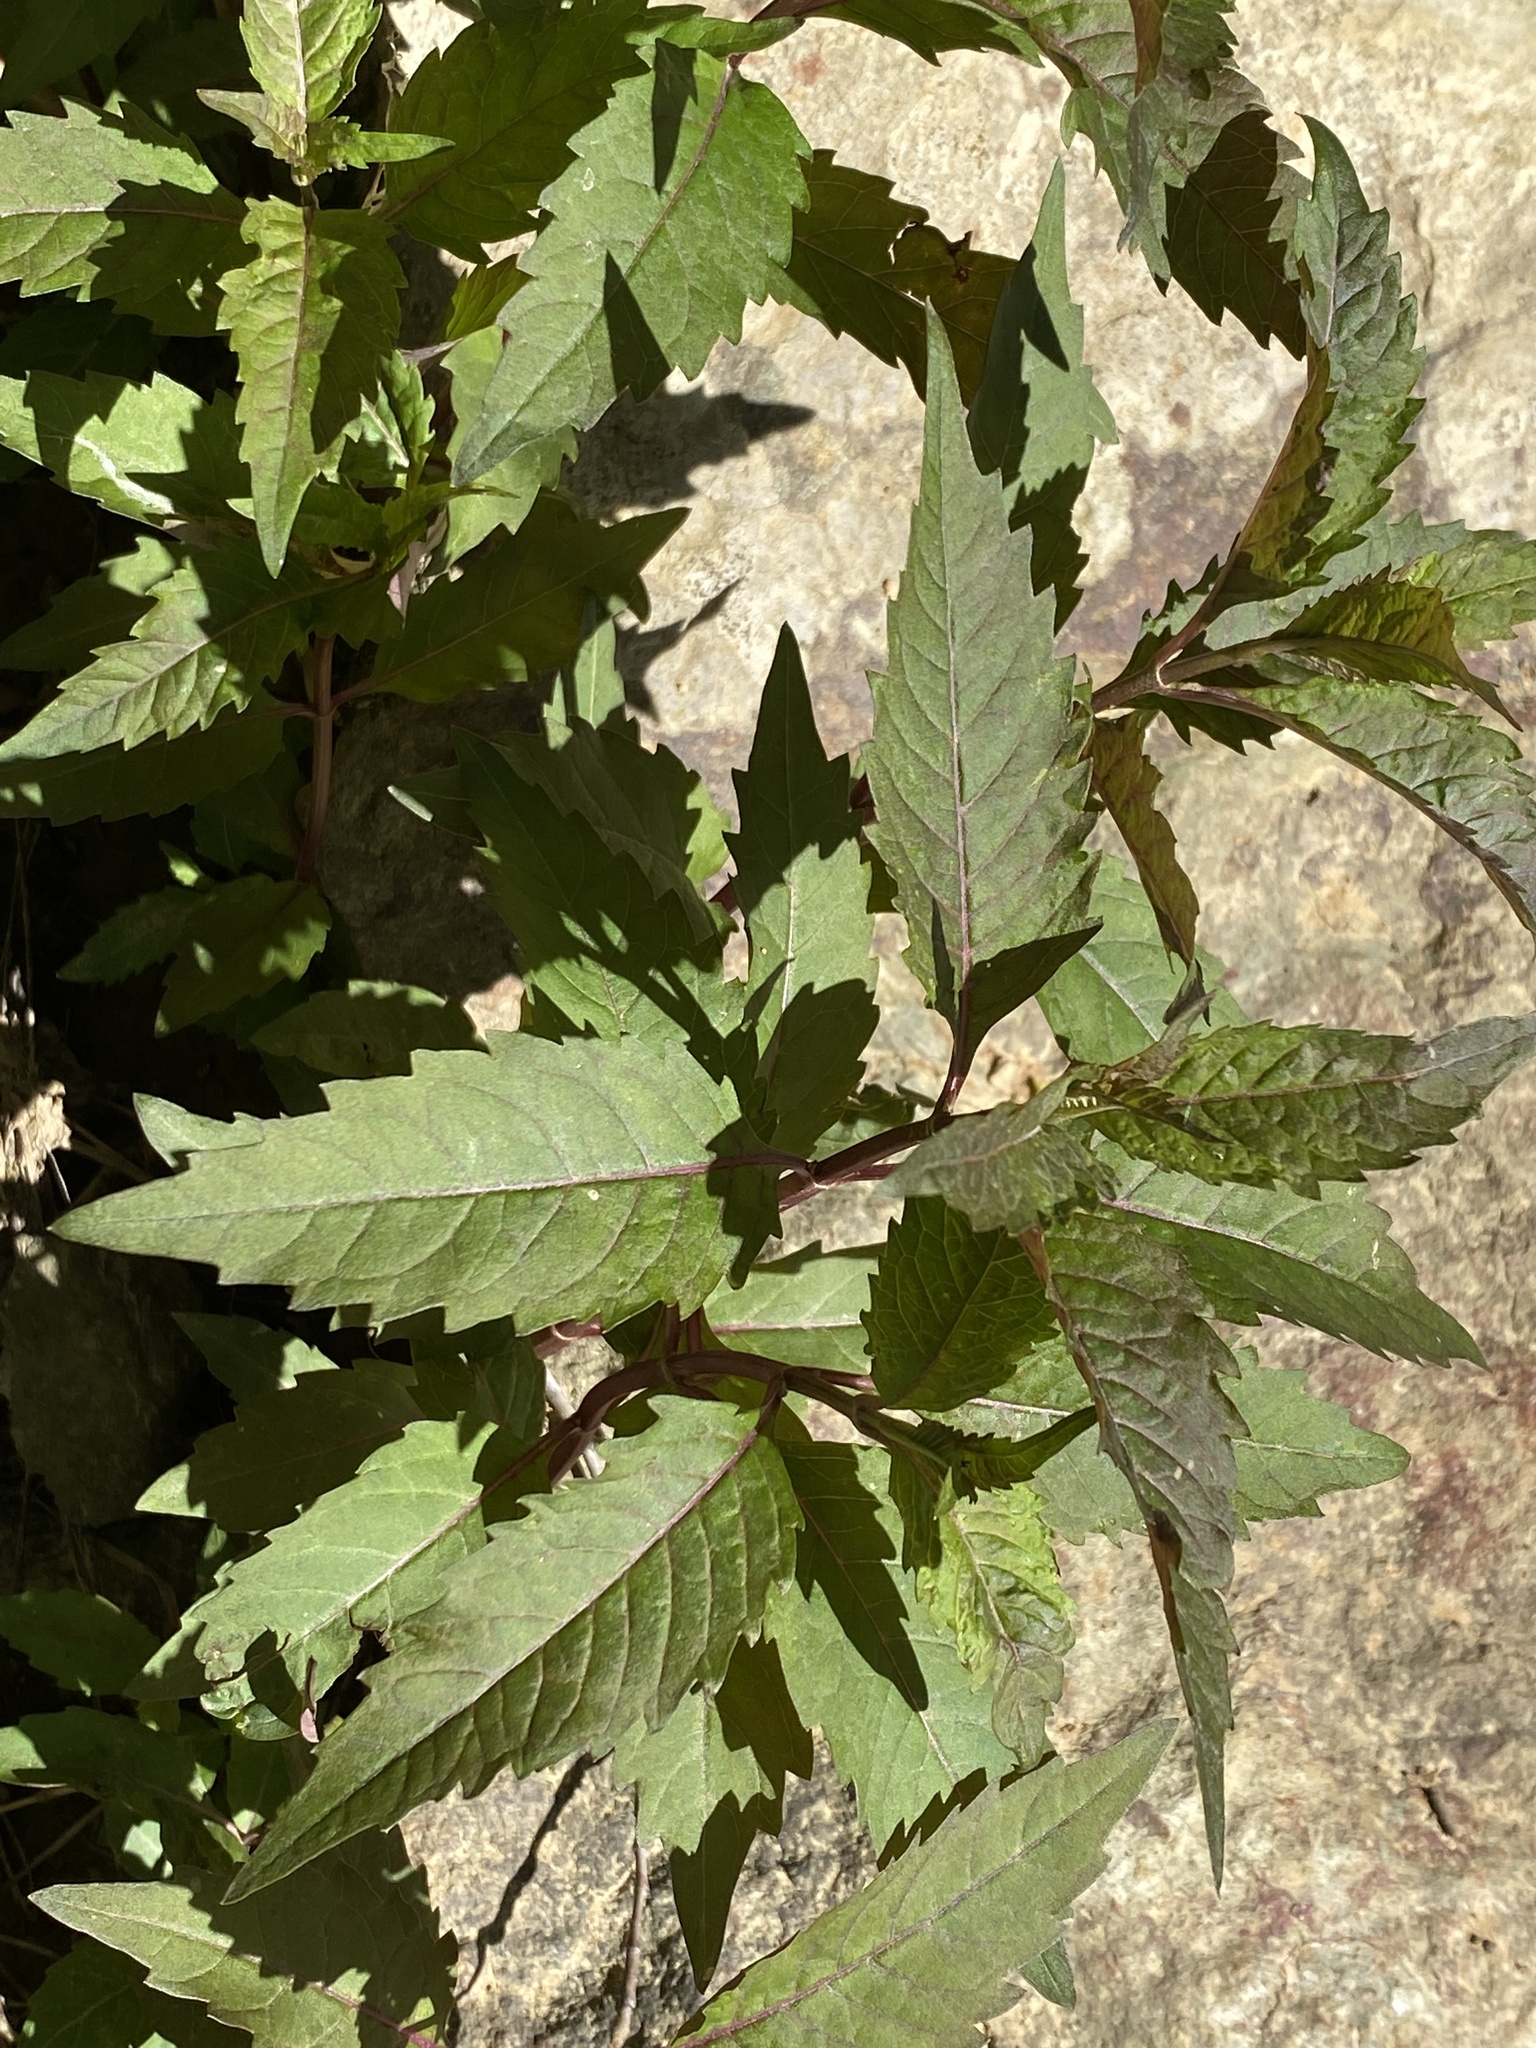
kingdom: Plantae
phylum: Tracheophyta
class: Magnoliopsida
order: Lamiales
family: Lamiaceae
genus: Lycopus
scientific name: Lycopus virginicus
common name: Bugleweed
